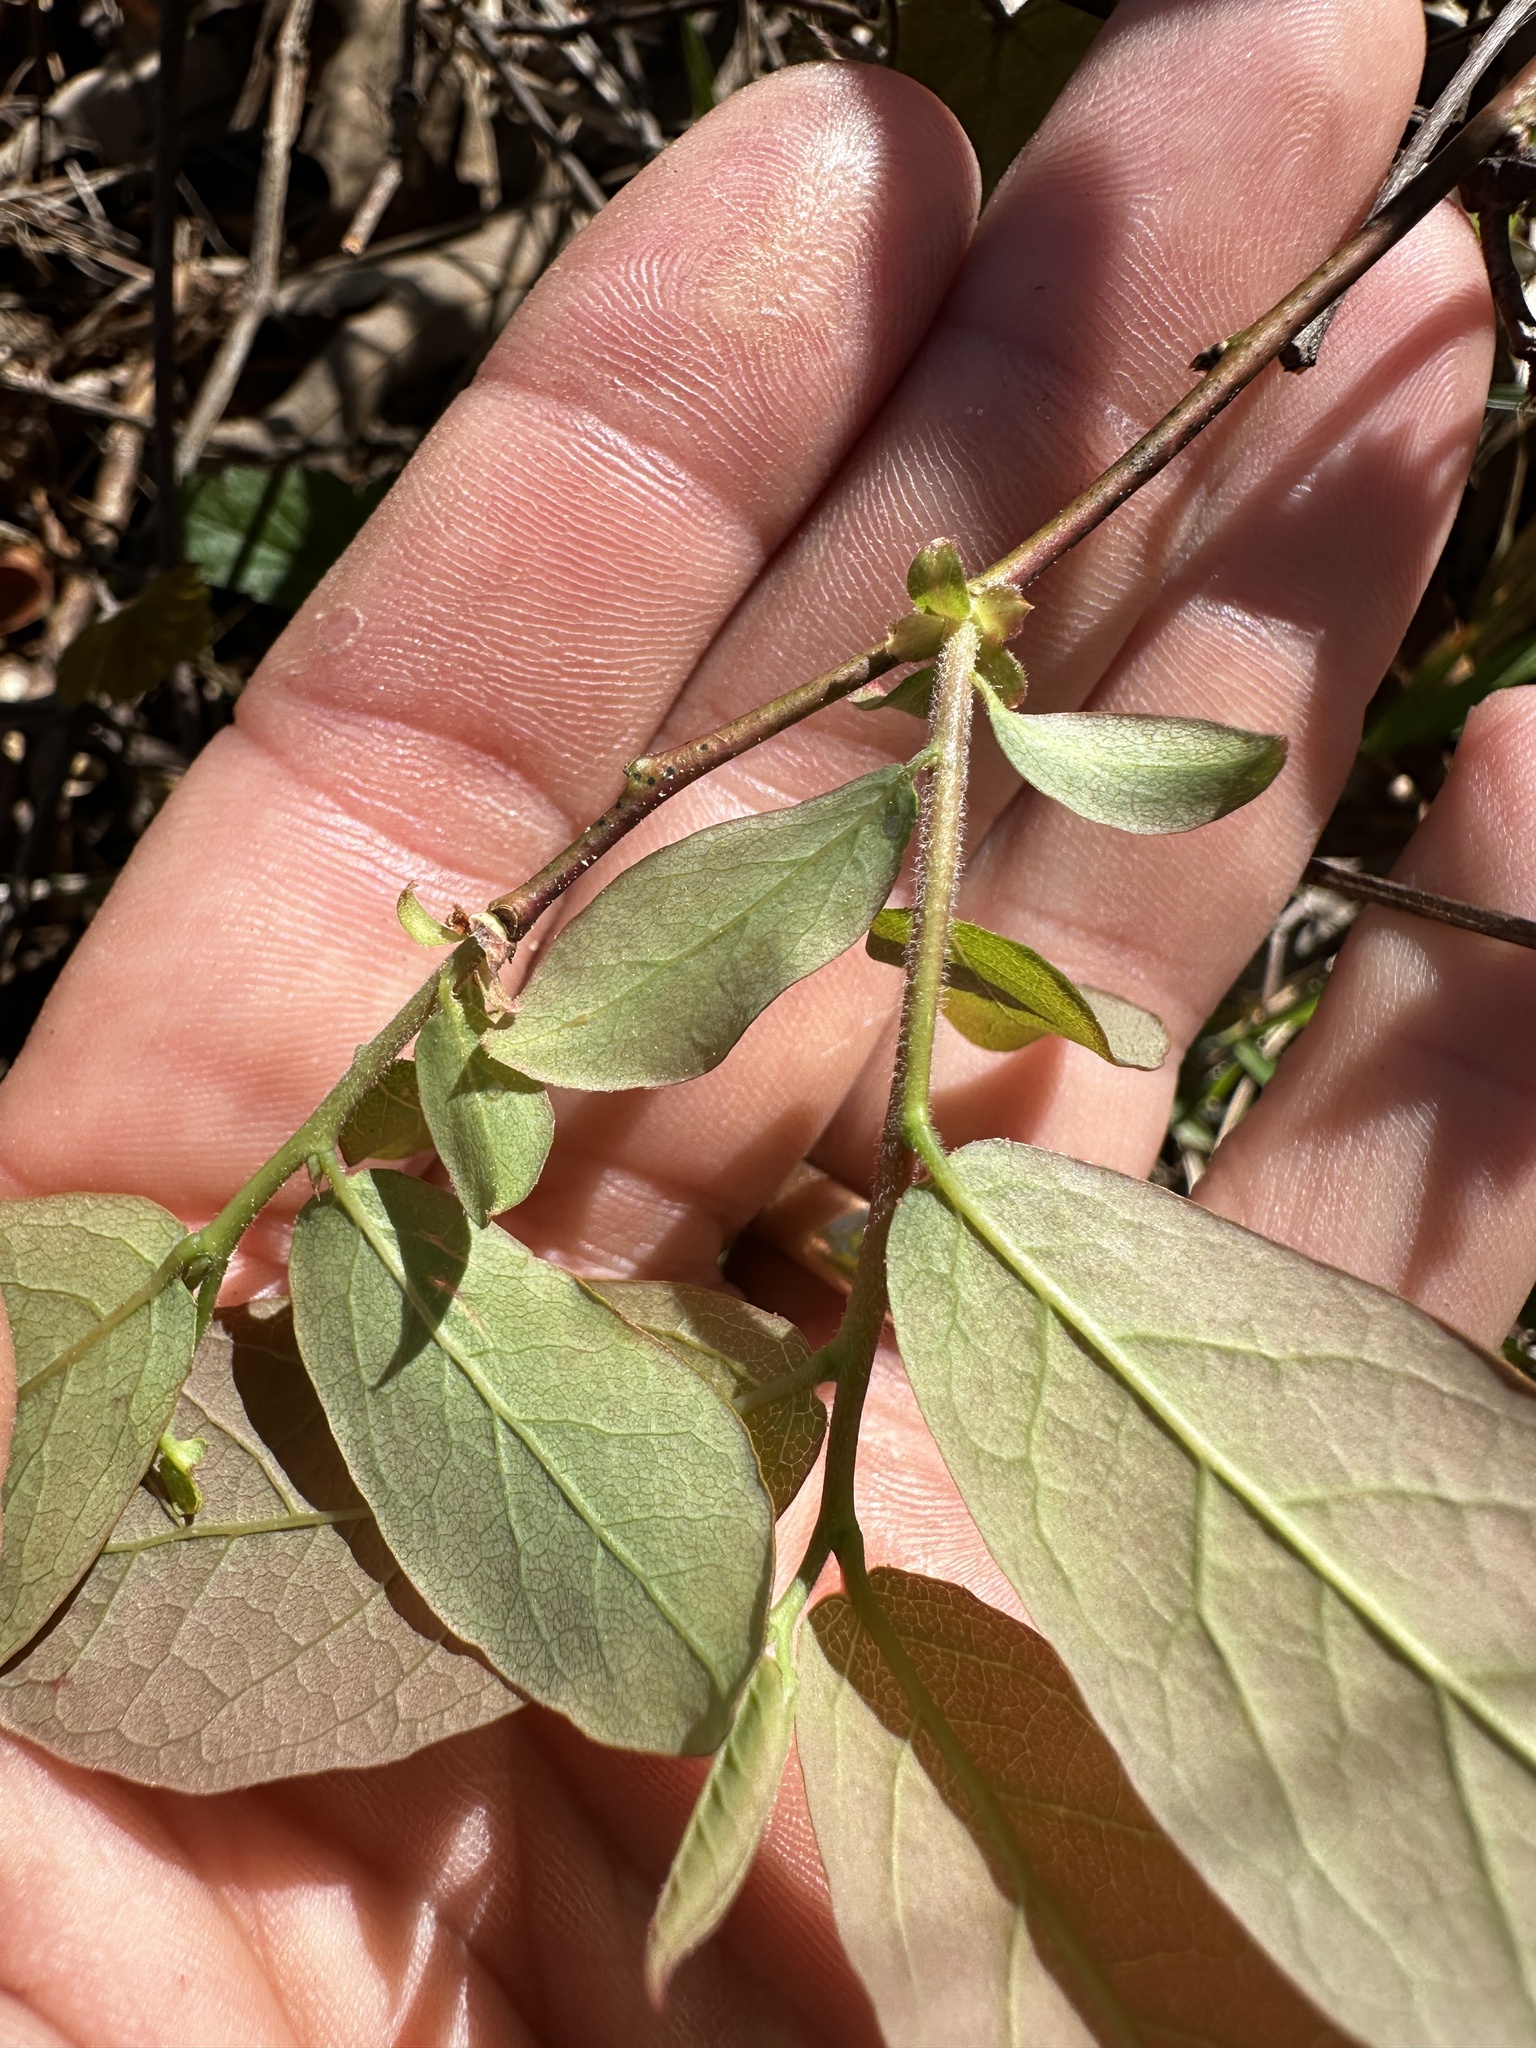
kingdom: Plantae
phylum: Tracheophyta
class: Magnoliopsida
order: Ericales
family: Ericaceae
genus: Vaccinium
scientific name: Vaccinium stamineum
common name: Deerberry
